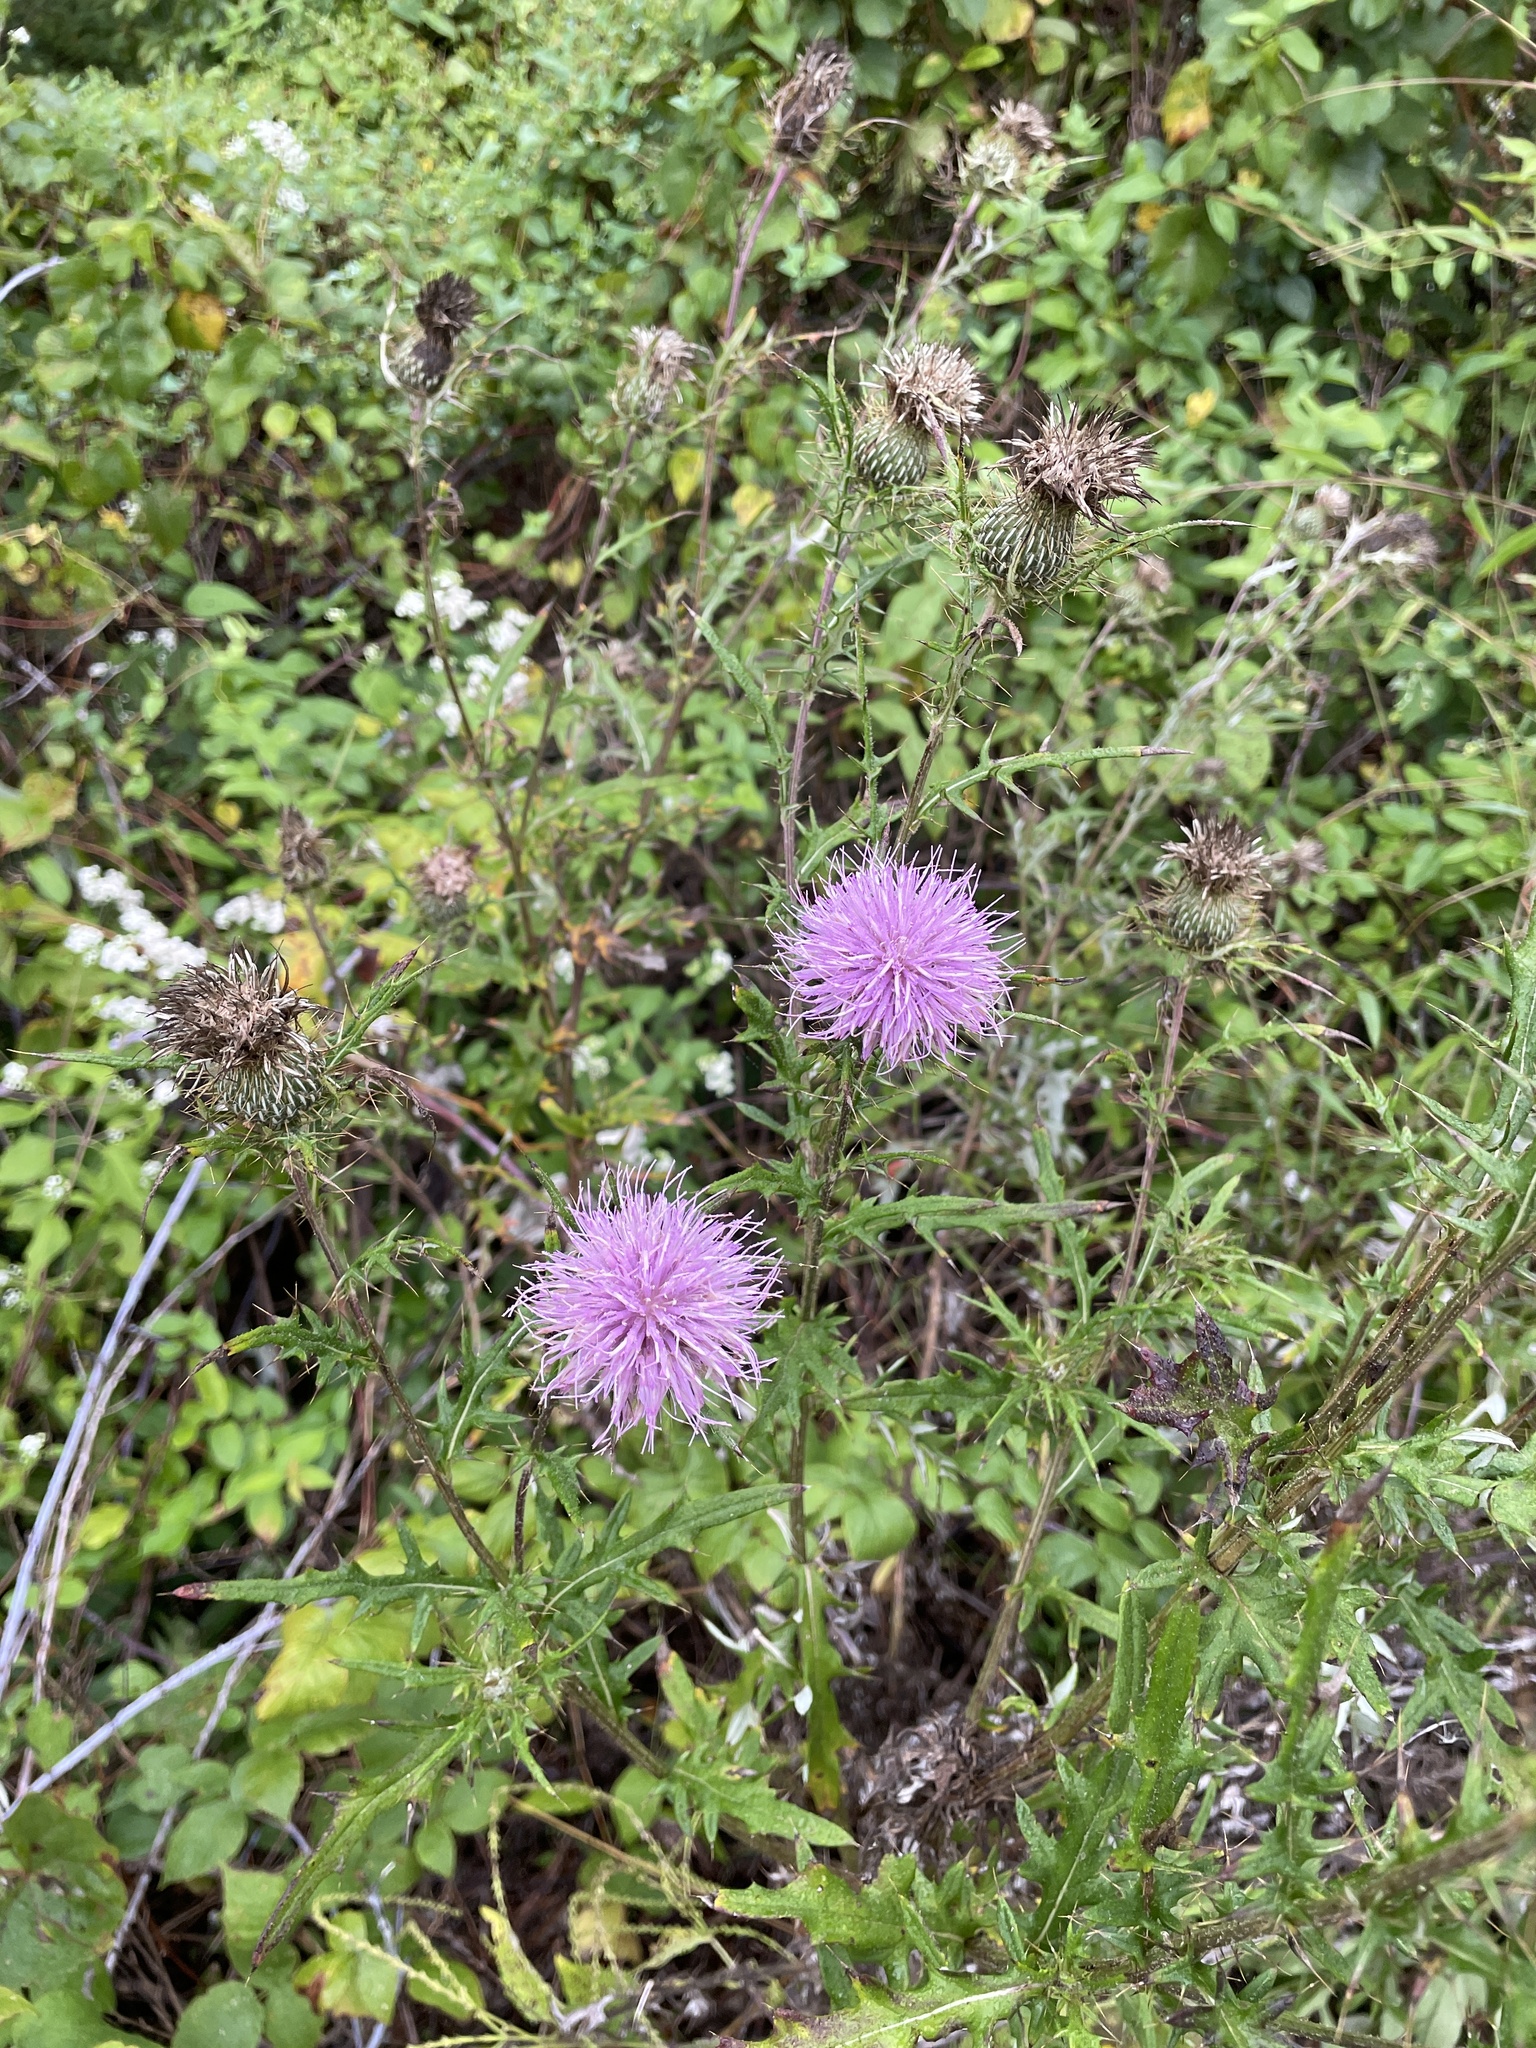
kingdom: Plantae
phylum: Tracheophyta
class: Magnoliopsida
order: Asterales
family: Asteraceae
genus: Cirsium
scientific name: Cirsium discolor
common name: Field thistle
